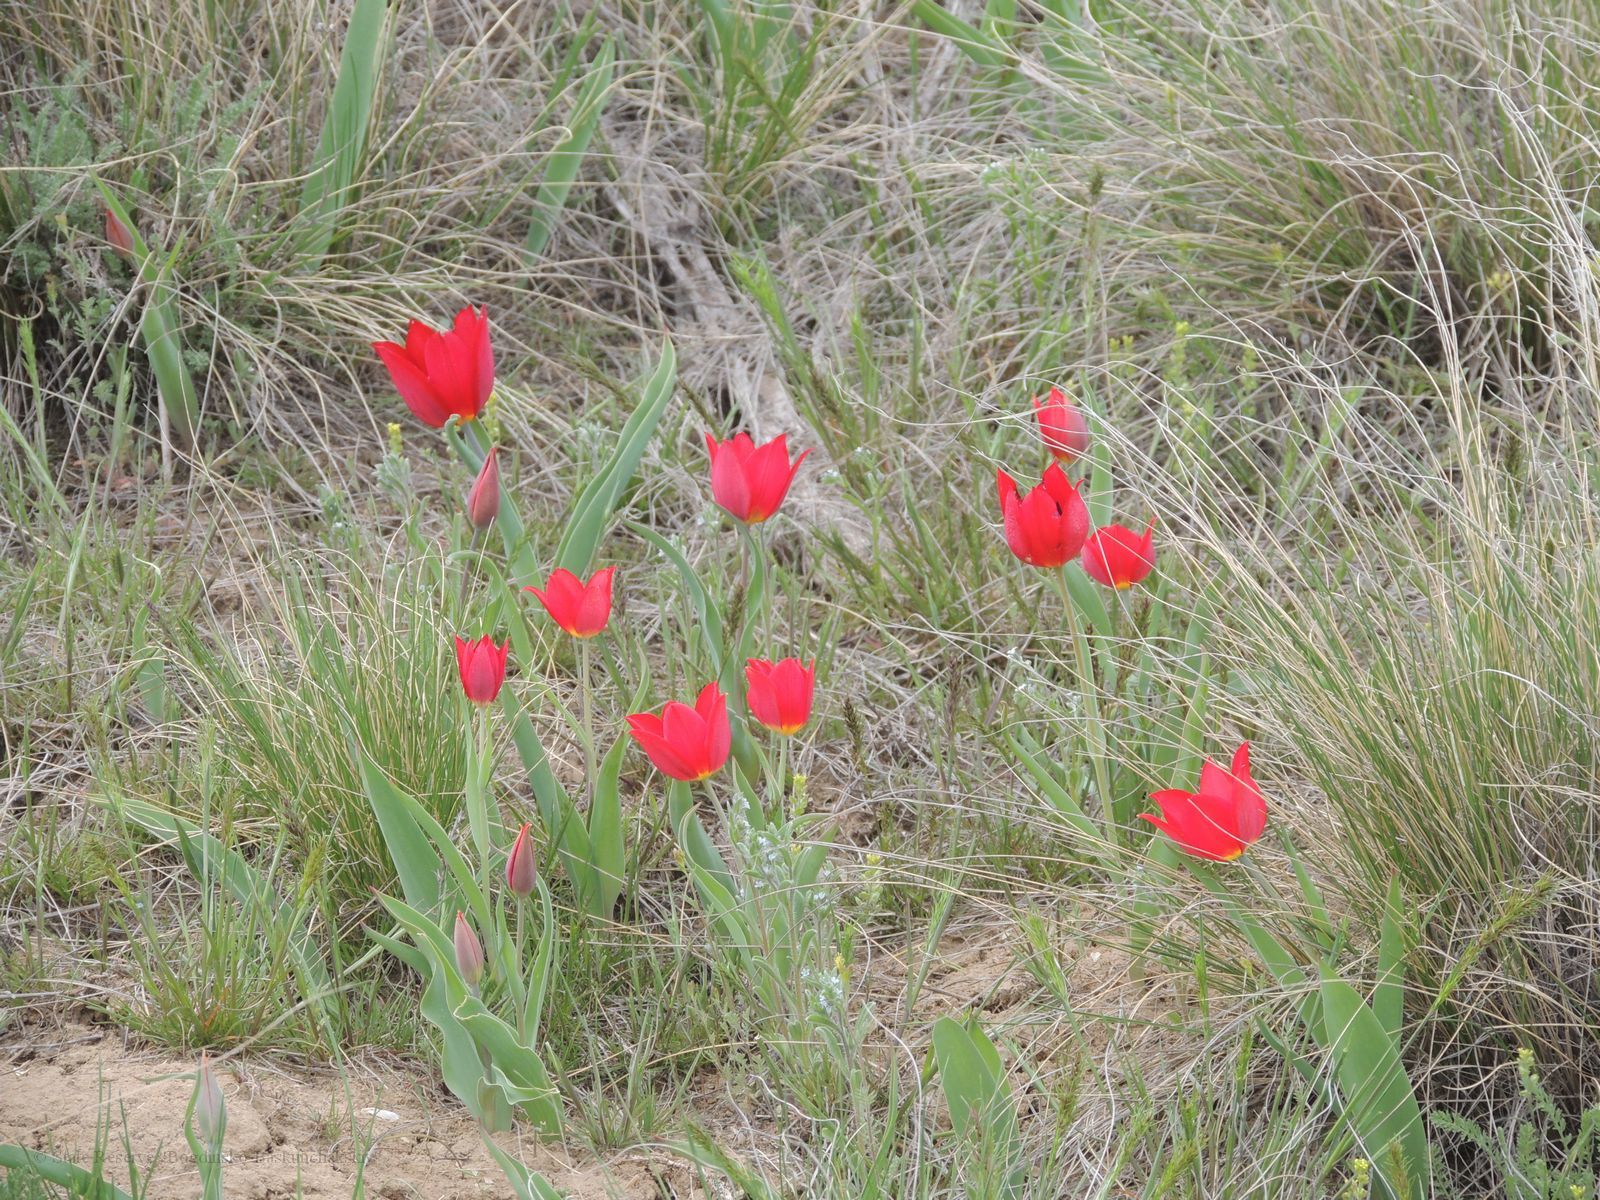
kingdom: Plantae
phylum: Tracheophyta
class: Liliopsida
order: Liliales
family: Liliaceae
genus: Tulipa
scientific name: Tulipa suaveolens
